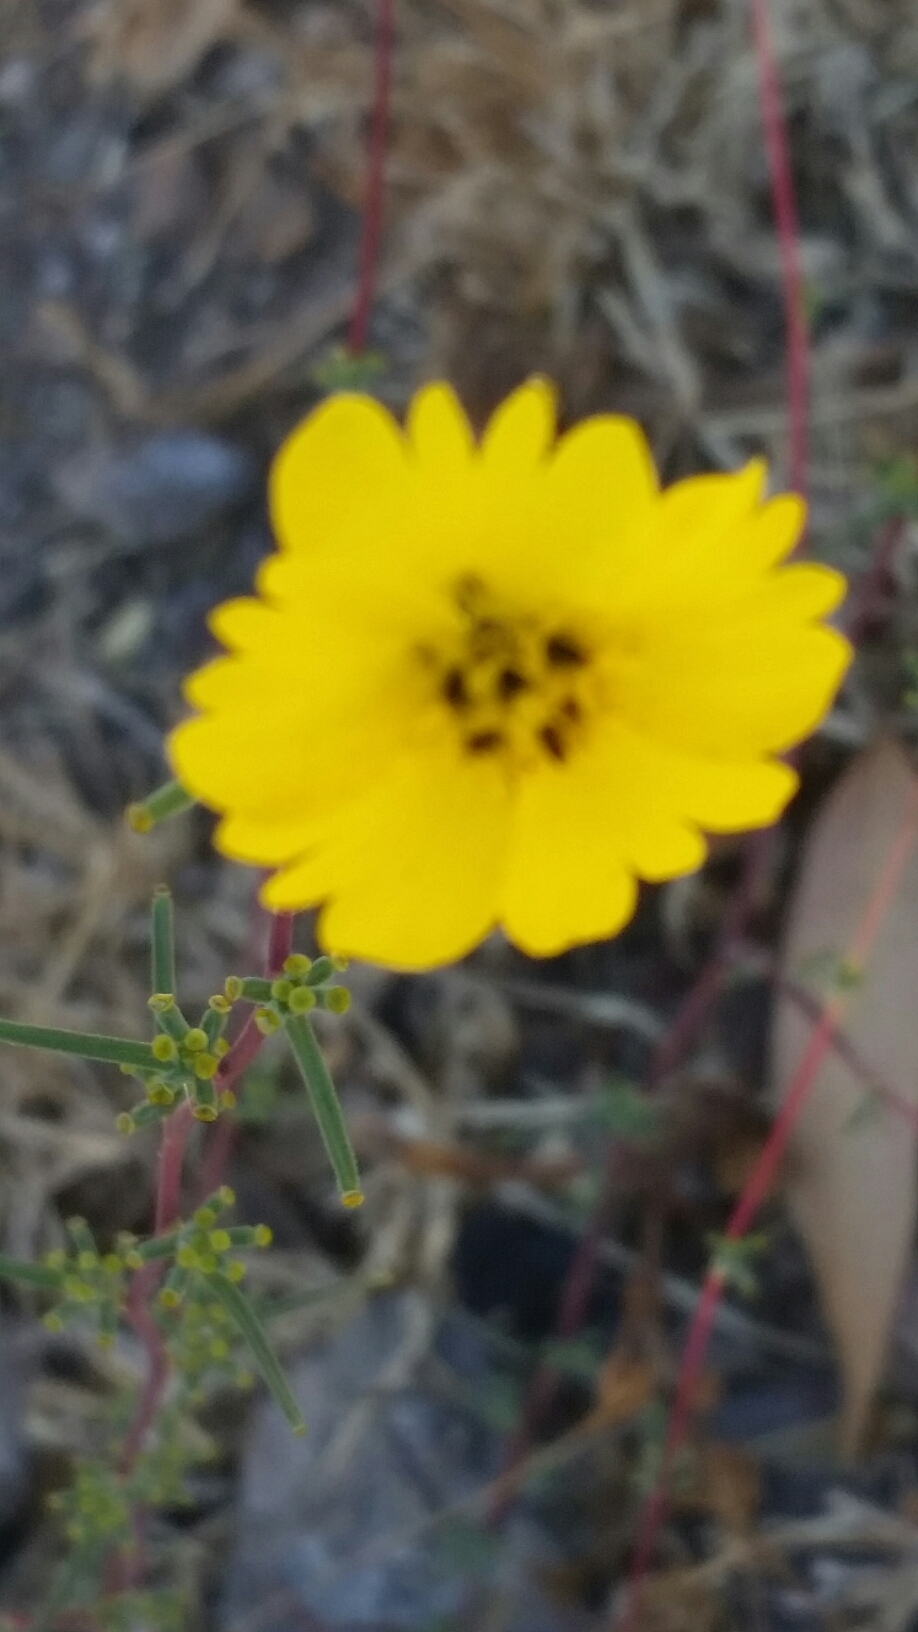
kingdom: Plantae
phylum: Tracheophyta
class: Magnoliopsida
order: Asterales
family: Asteraceae
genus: Calycadenia
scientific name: Calycadenia truncata
